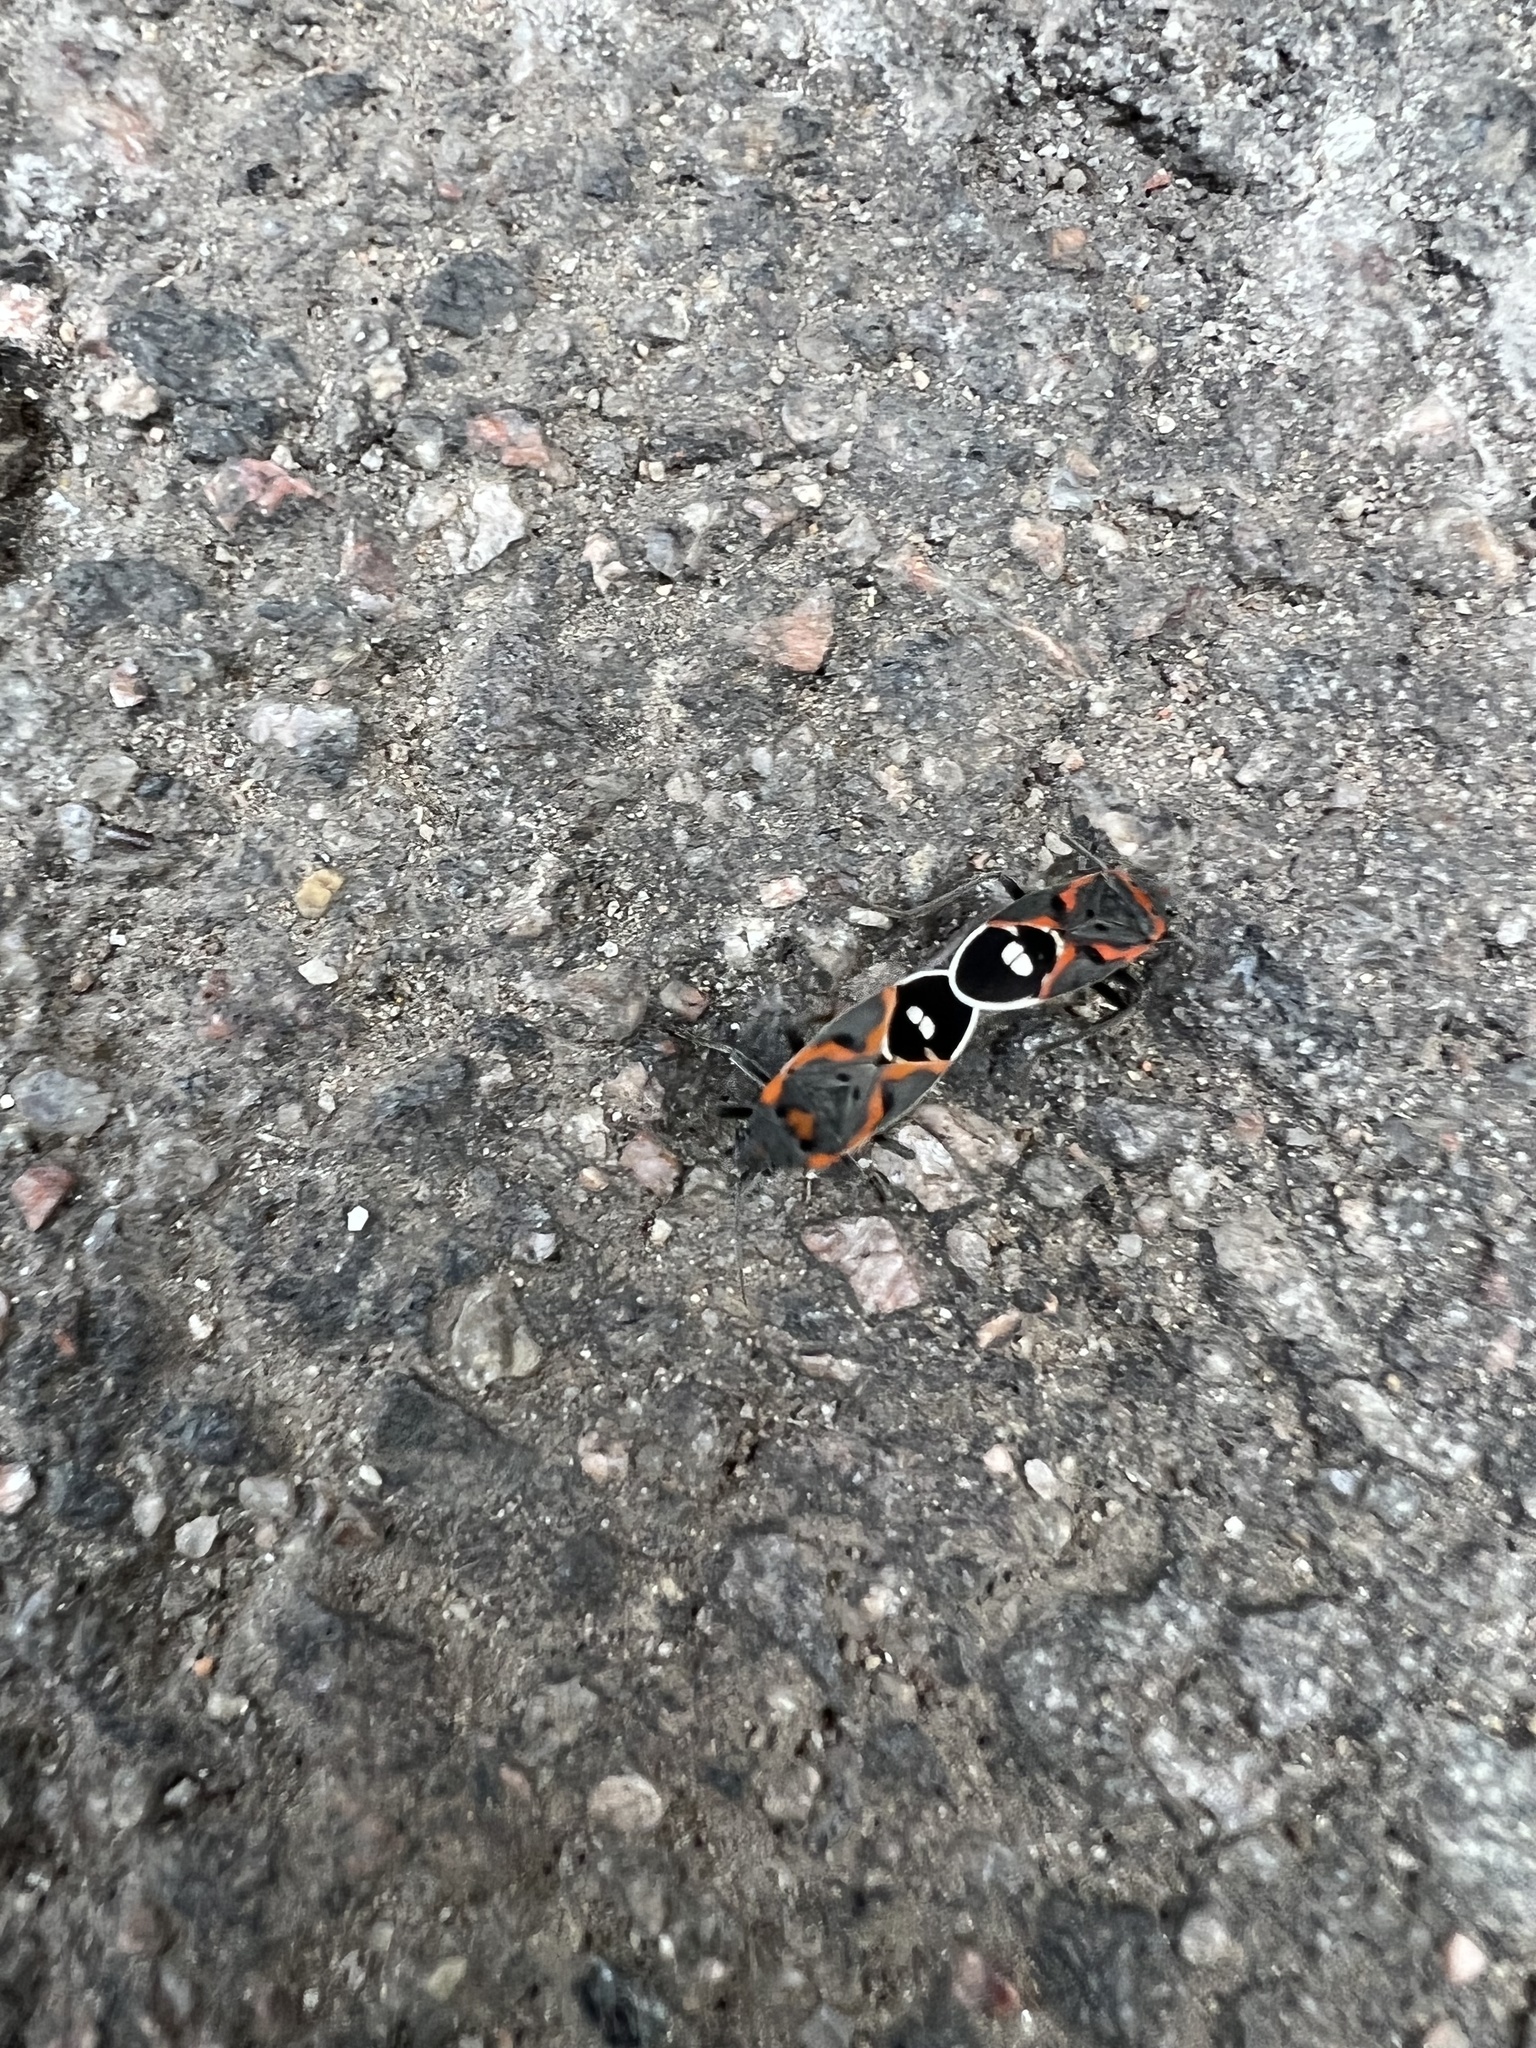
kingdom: Animalia
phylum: Arthropoda
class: Insecta
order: Hemiptera
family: Lygaeidae
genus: Lygaeus
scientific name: Lygaeus kalmii
